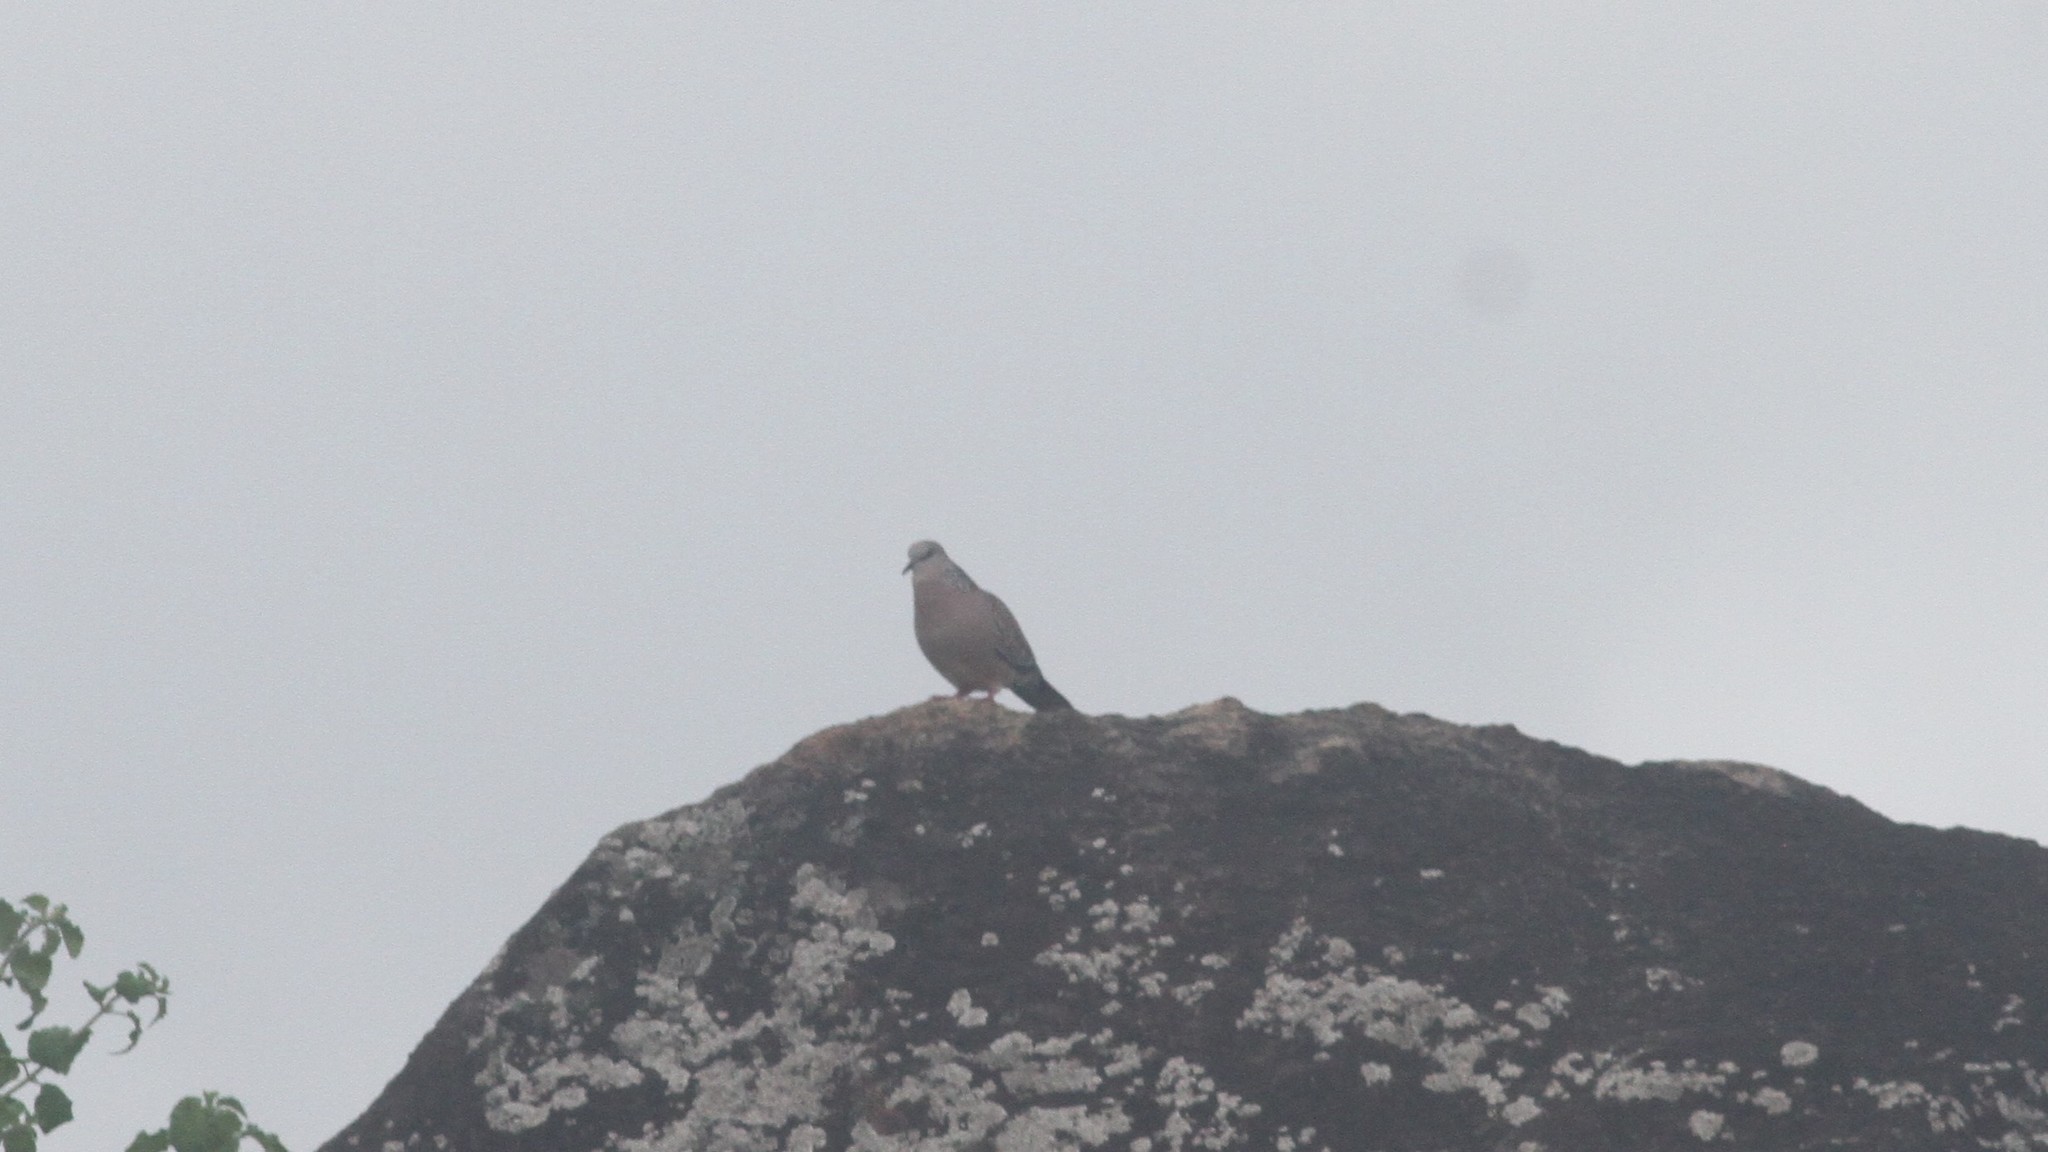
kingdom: Animalia
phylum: Chordata
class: Aves
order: Columbiformes
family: Columbidae
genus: Spilopelia
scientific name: Spilopelia chinensis
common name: Spotted dove
